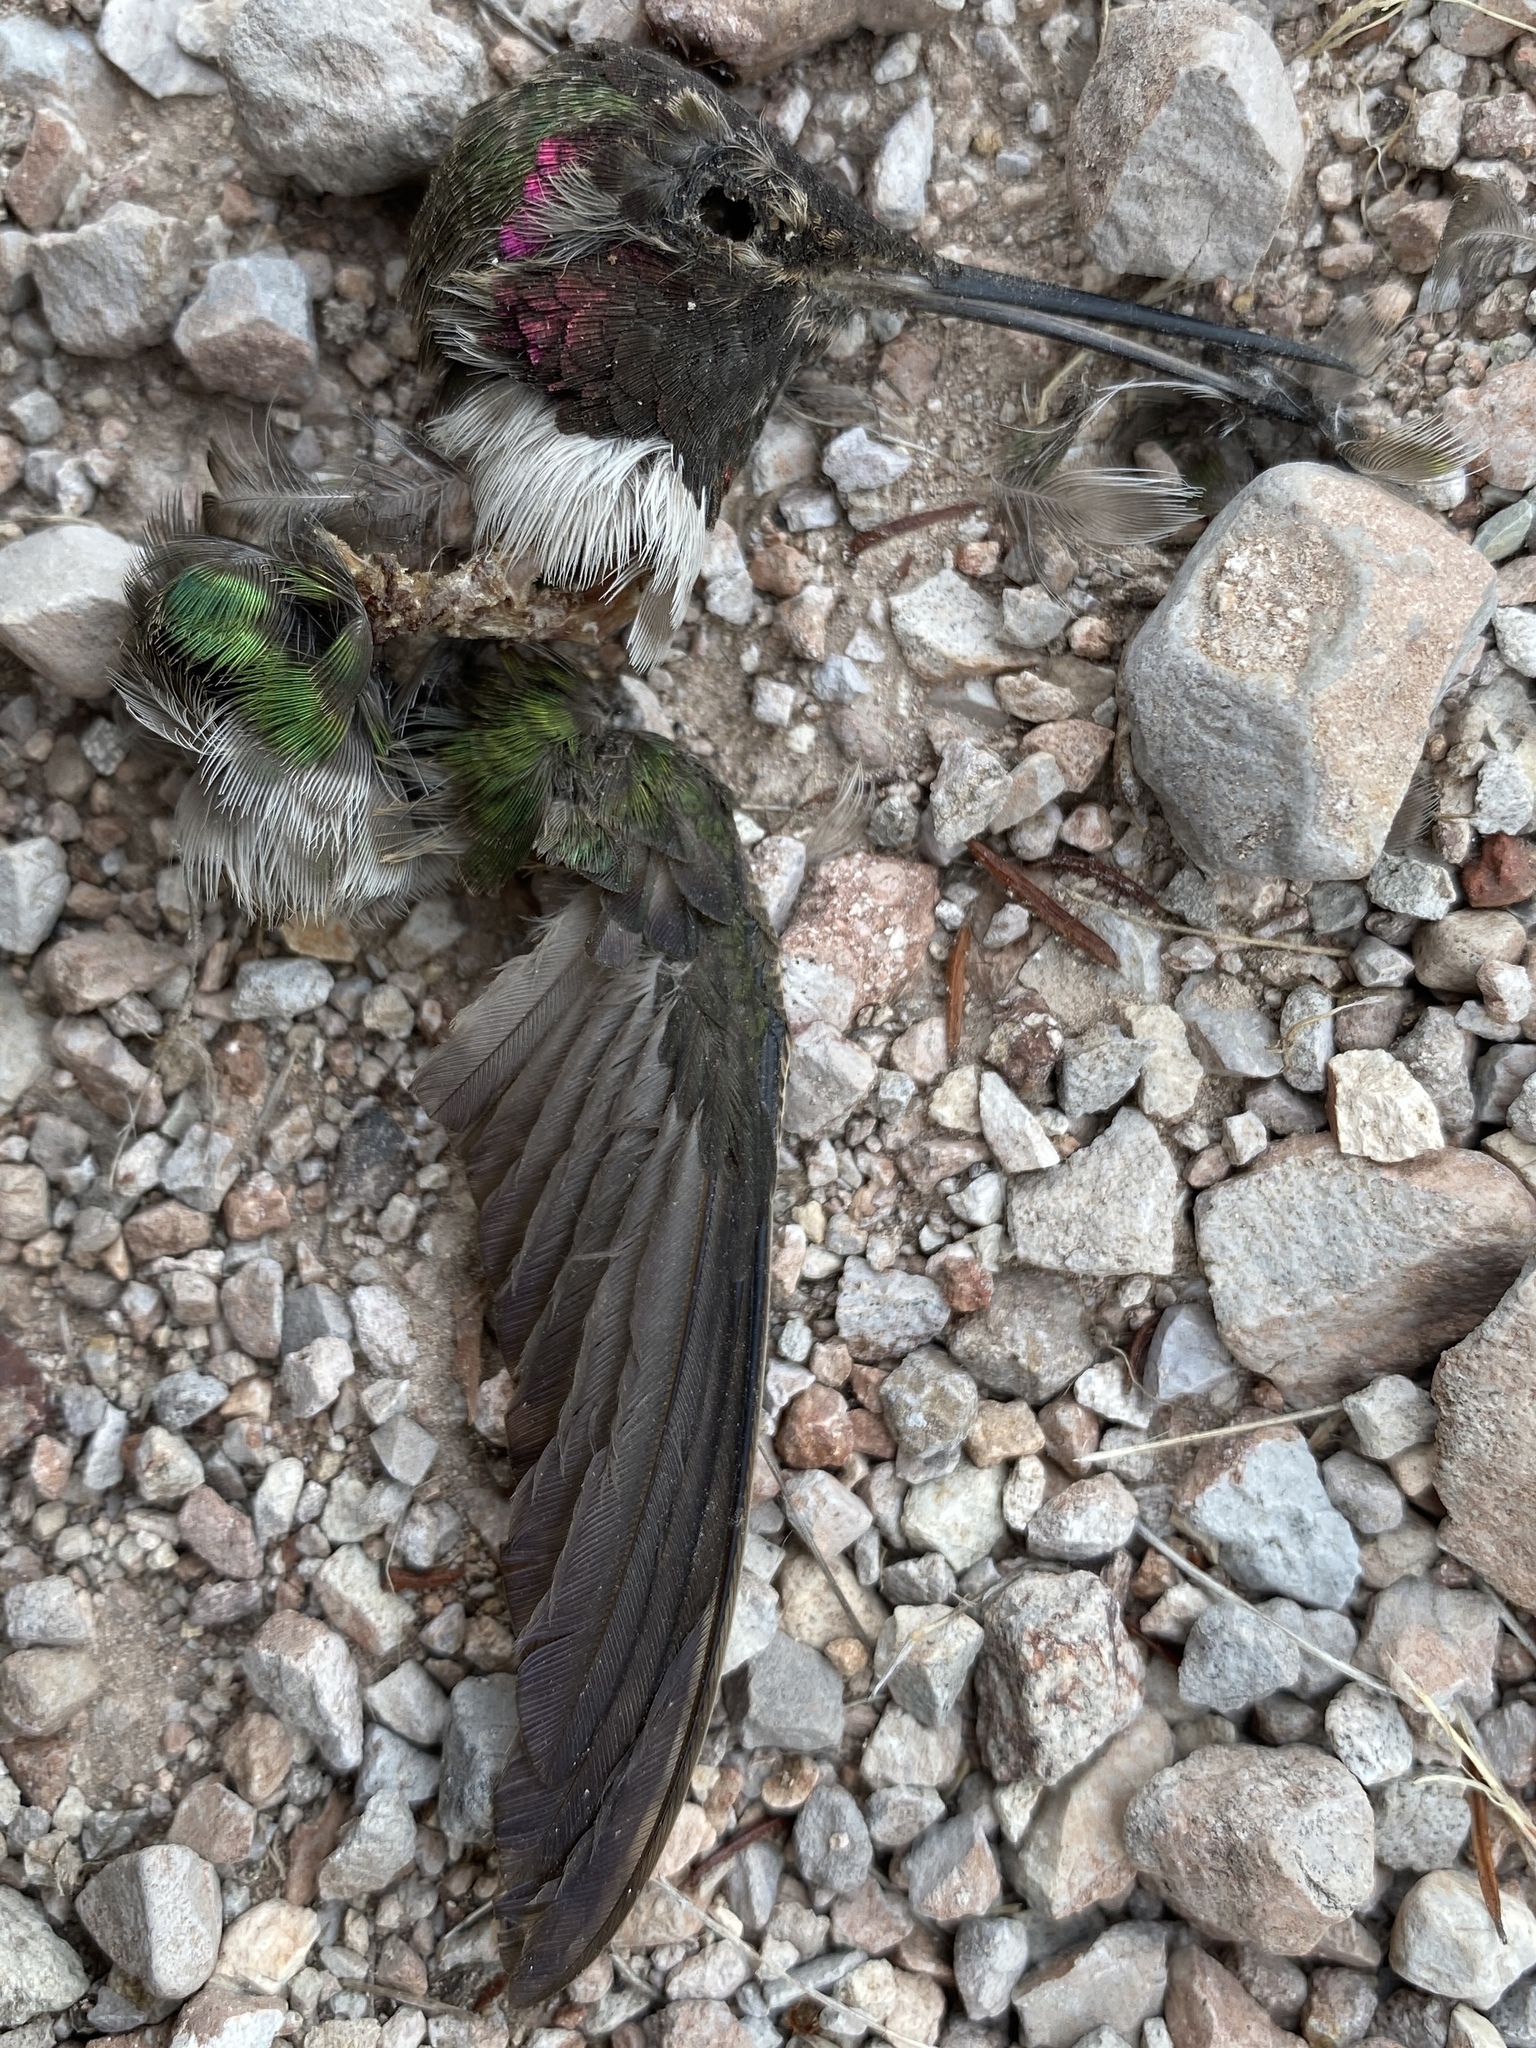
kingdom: Animalia
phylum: Chordata
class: Aves
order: Apodiformes
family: Trochilidae
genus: Calypte
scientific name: Calypte anna
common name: Anna's hummingbird
